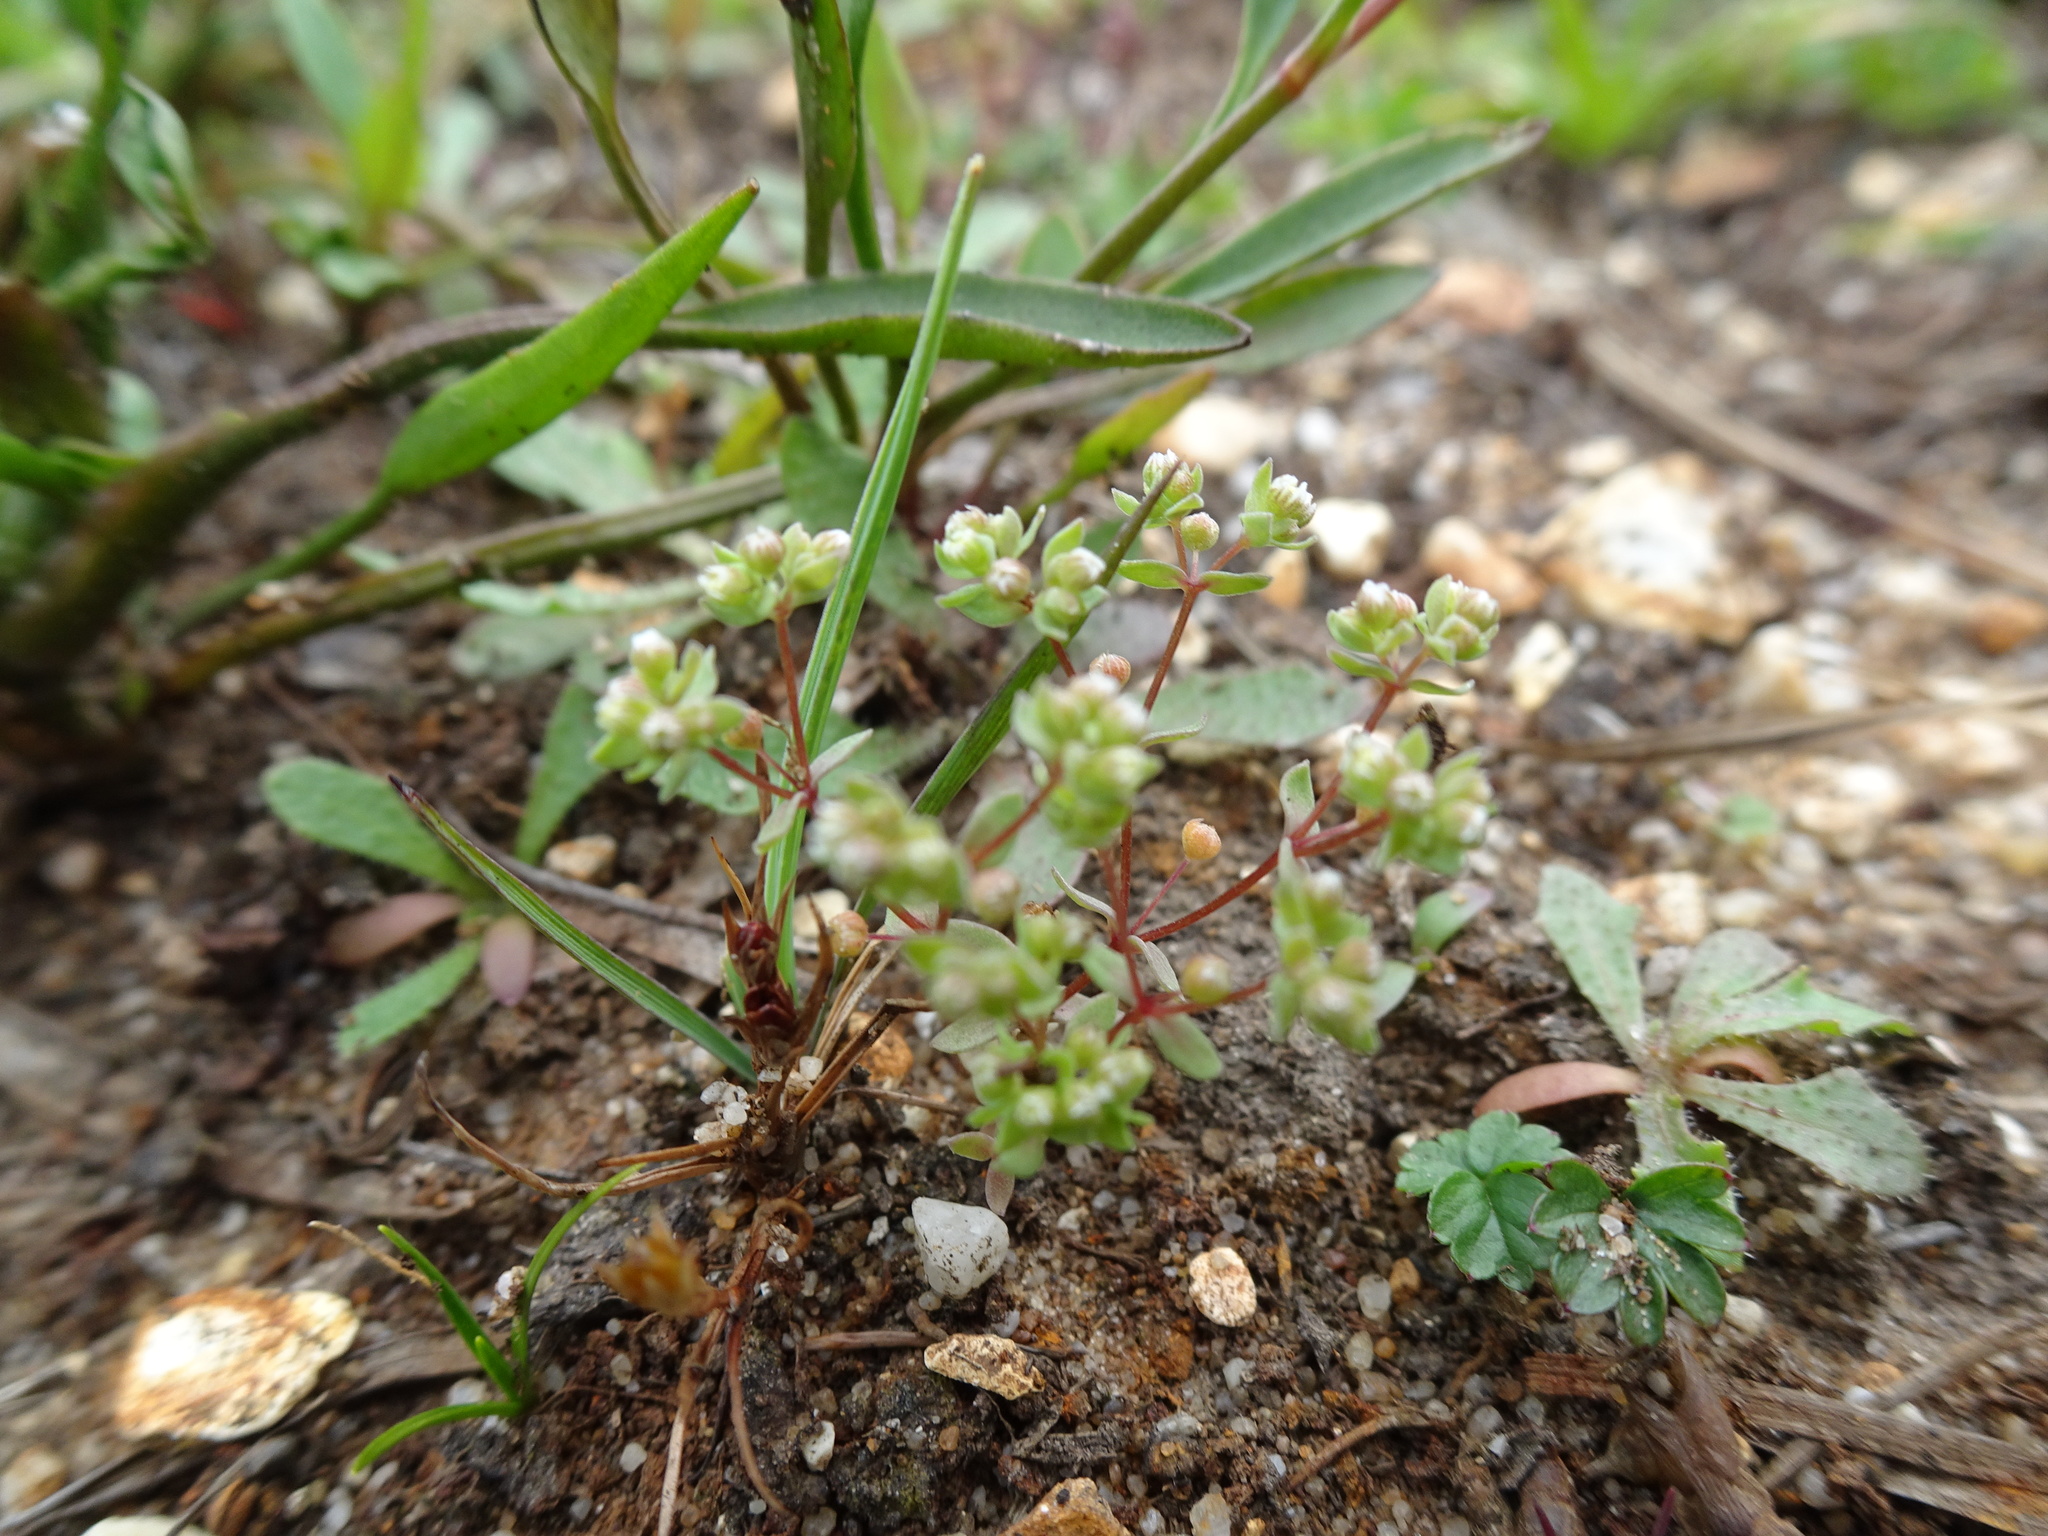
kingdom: Plantae
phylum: Tracheophyta
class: Magnoliopsida
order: Malpighiales
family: Linaceae
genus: Radiola
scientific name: Radiola linoides
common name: Allseed
